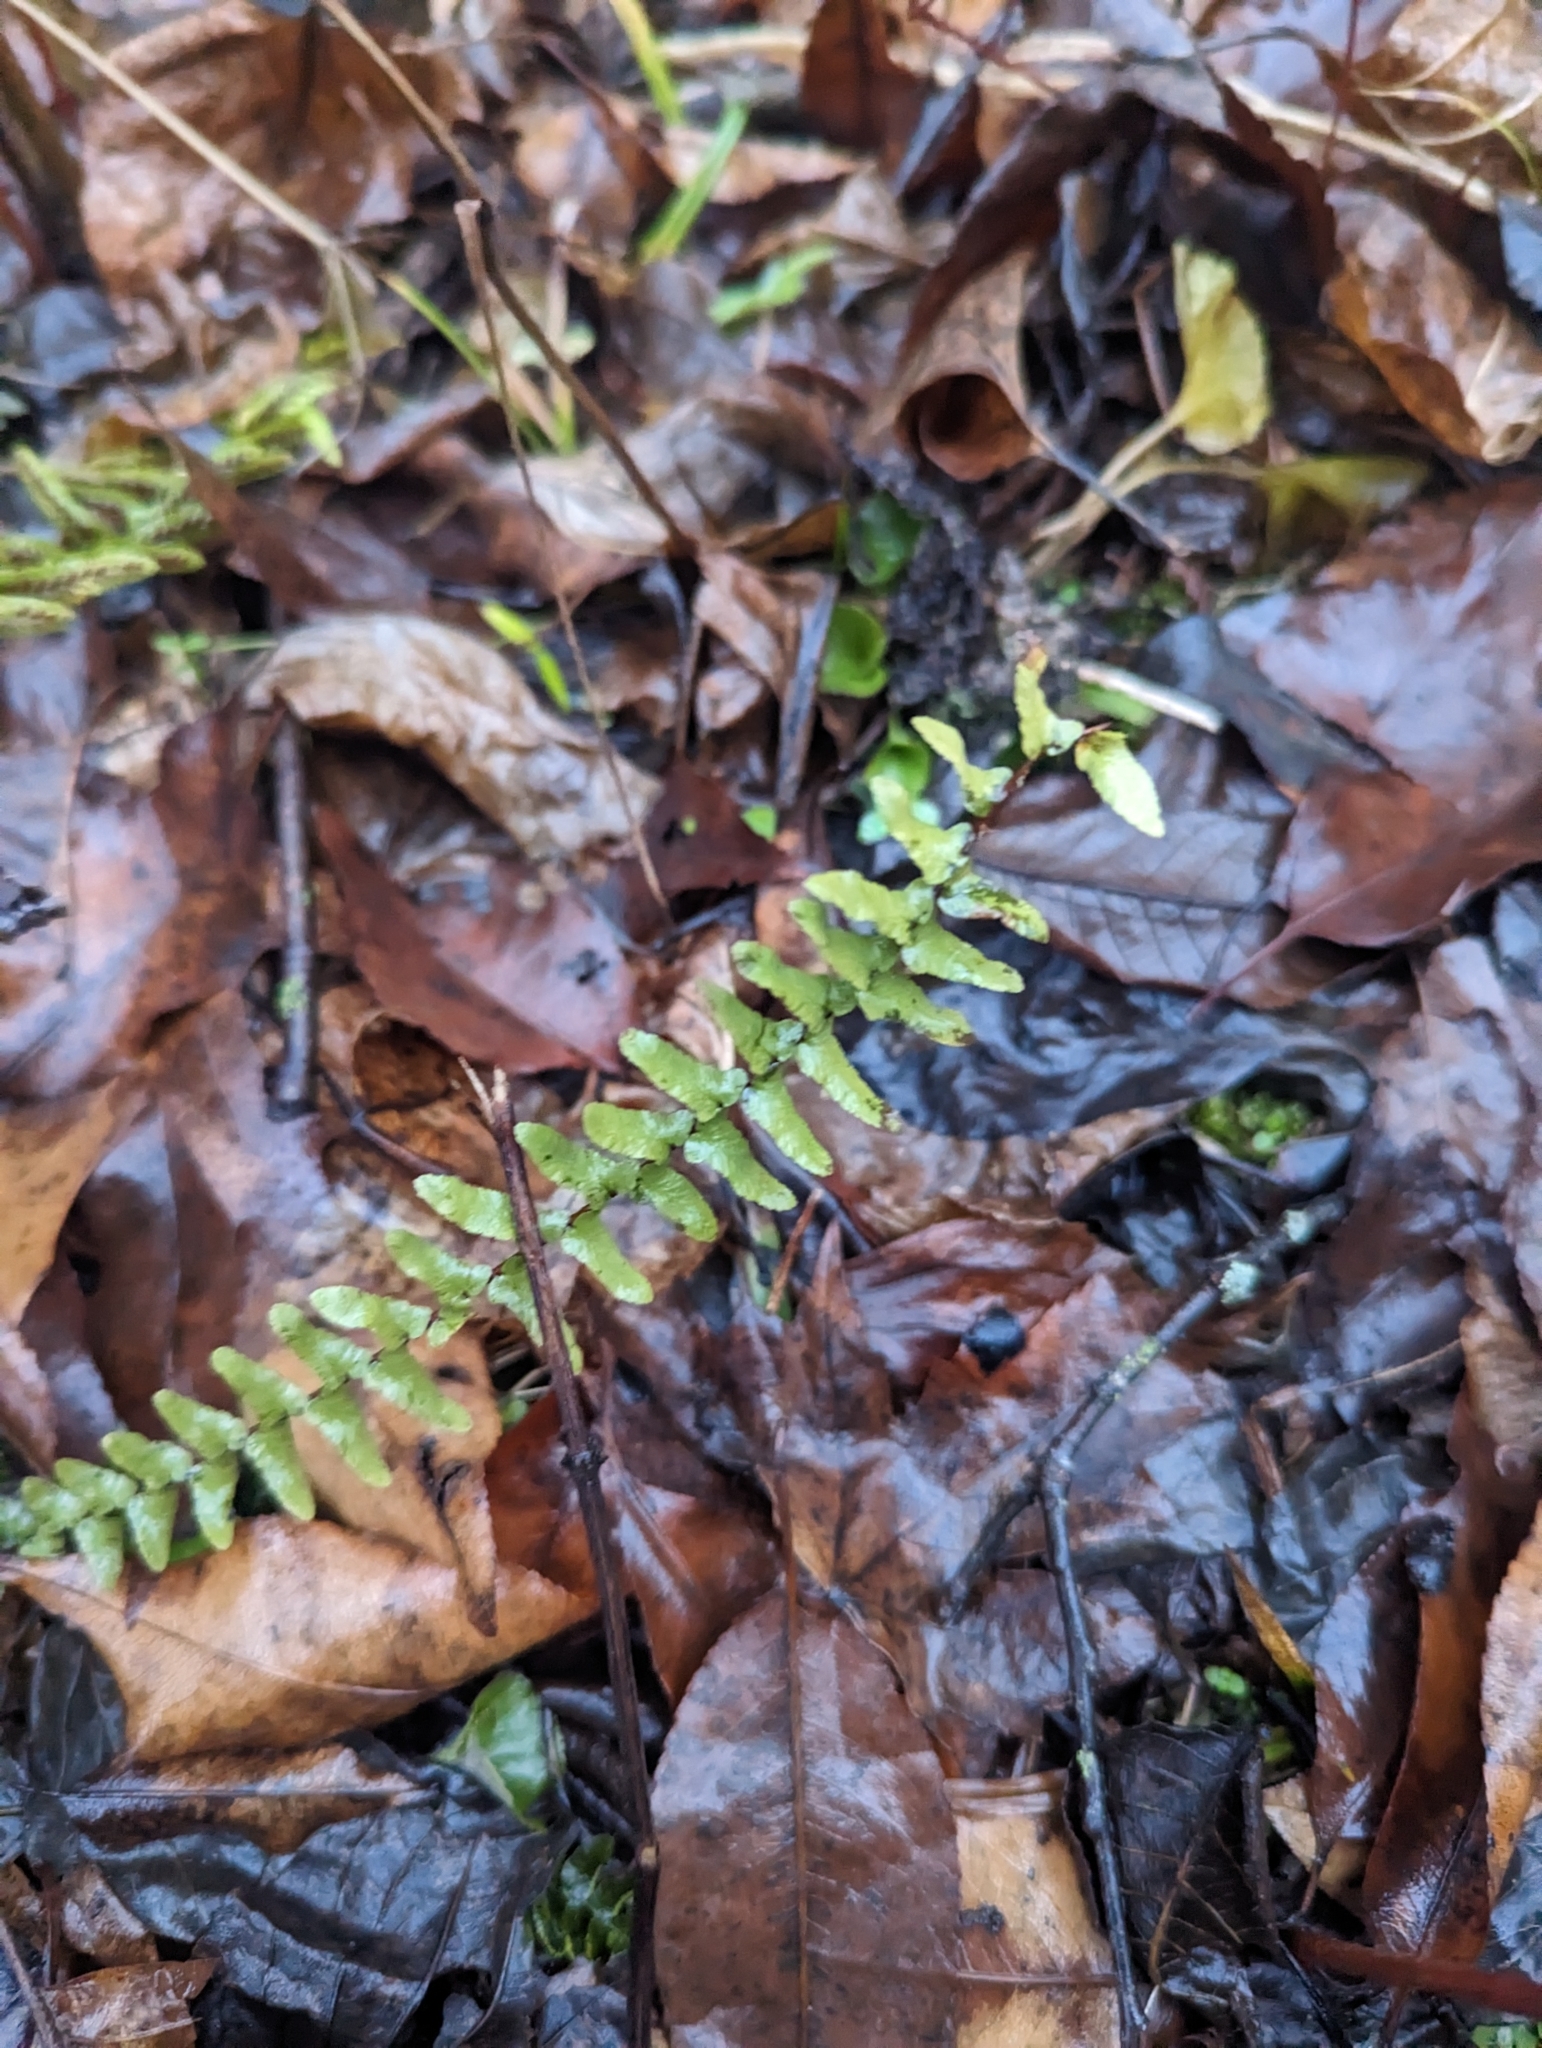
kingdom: Plantae
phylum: Tracheophyta
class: Polypodiopsida
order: Polypodiales
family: Aspleniaceae
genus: Asplenium
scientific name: Asplenium platyneuron
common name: Ebony spleenwort
